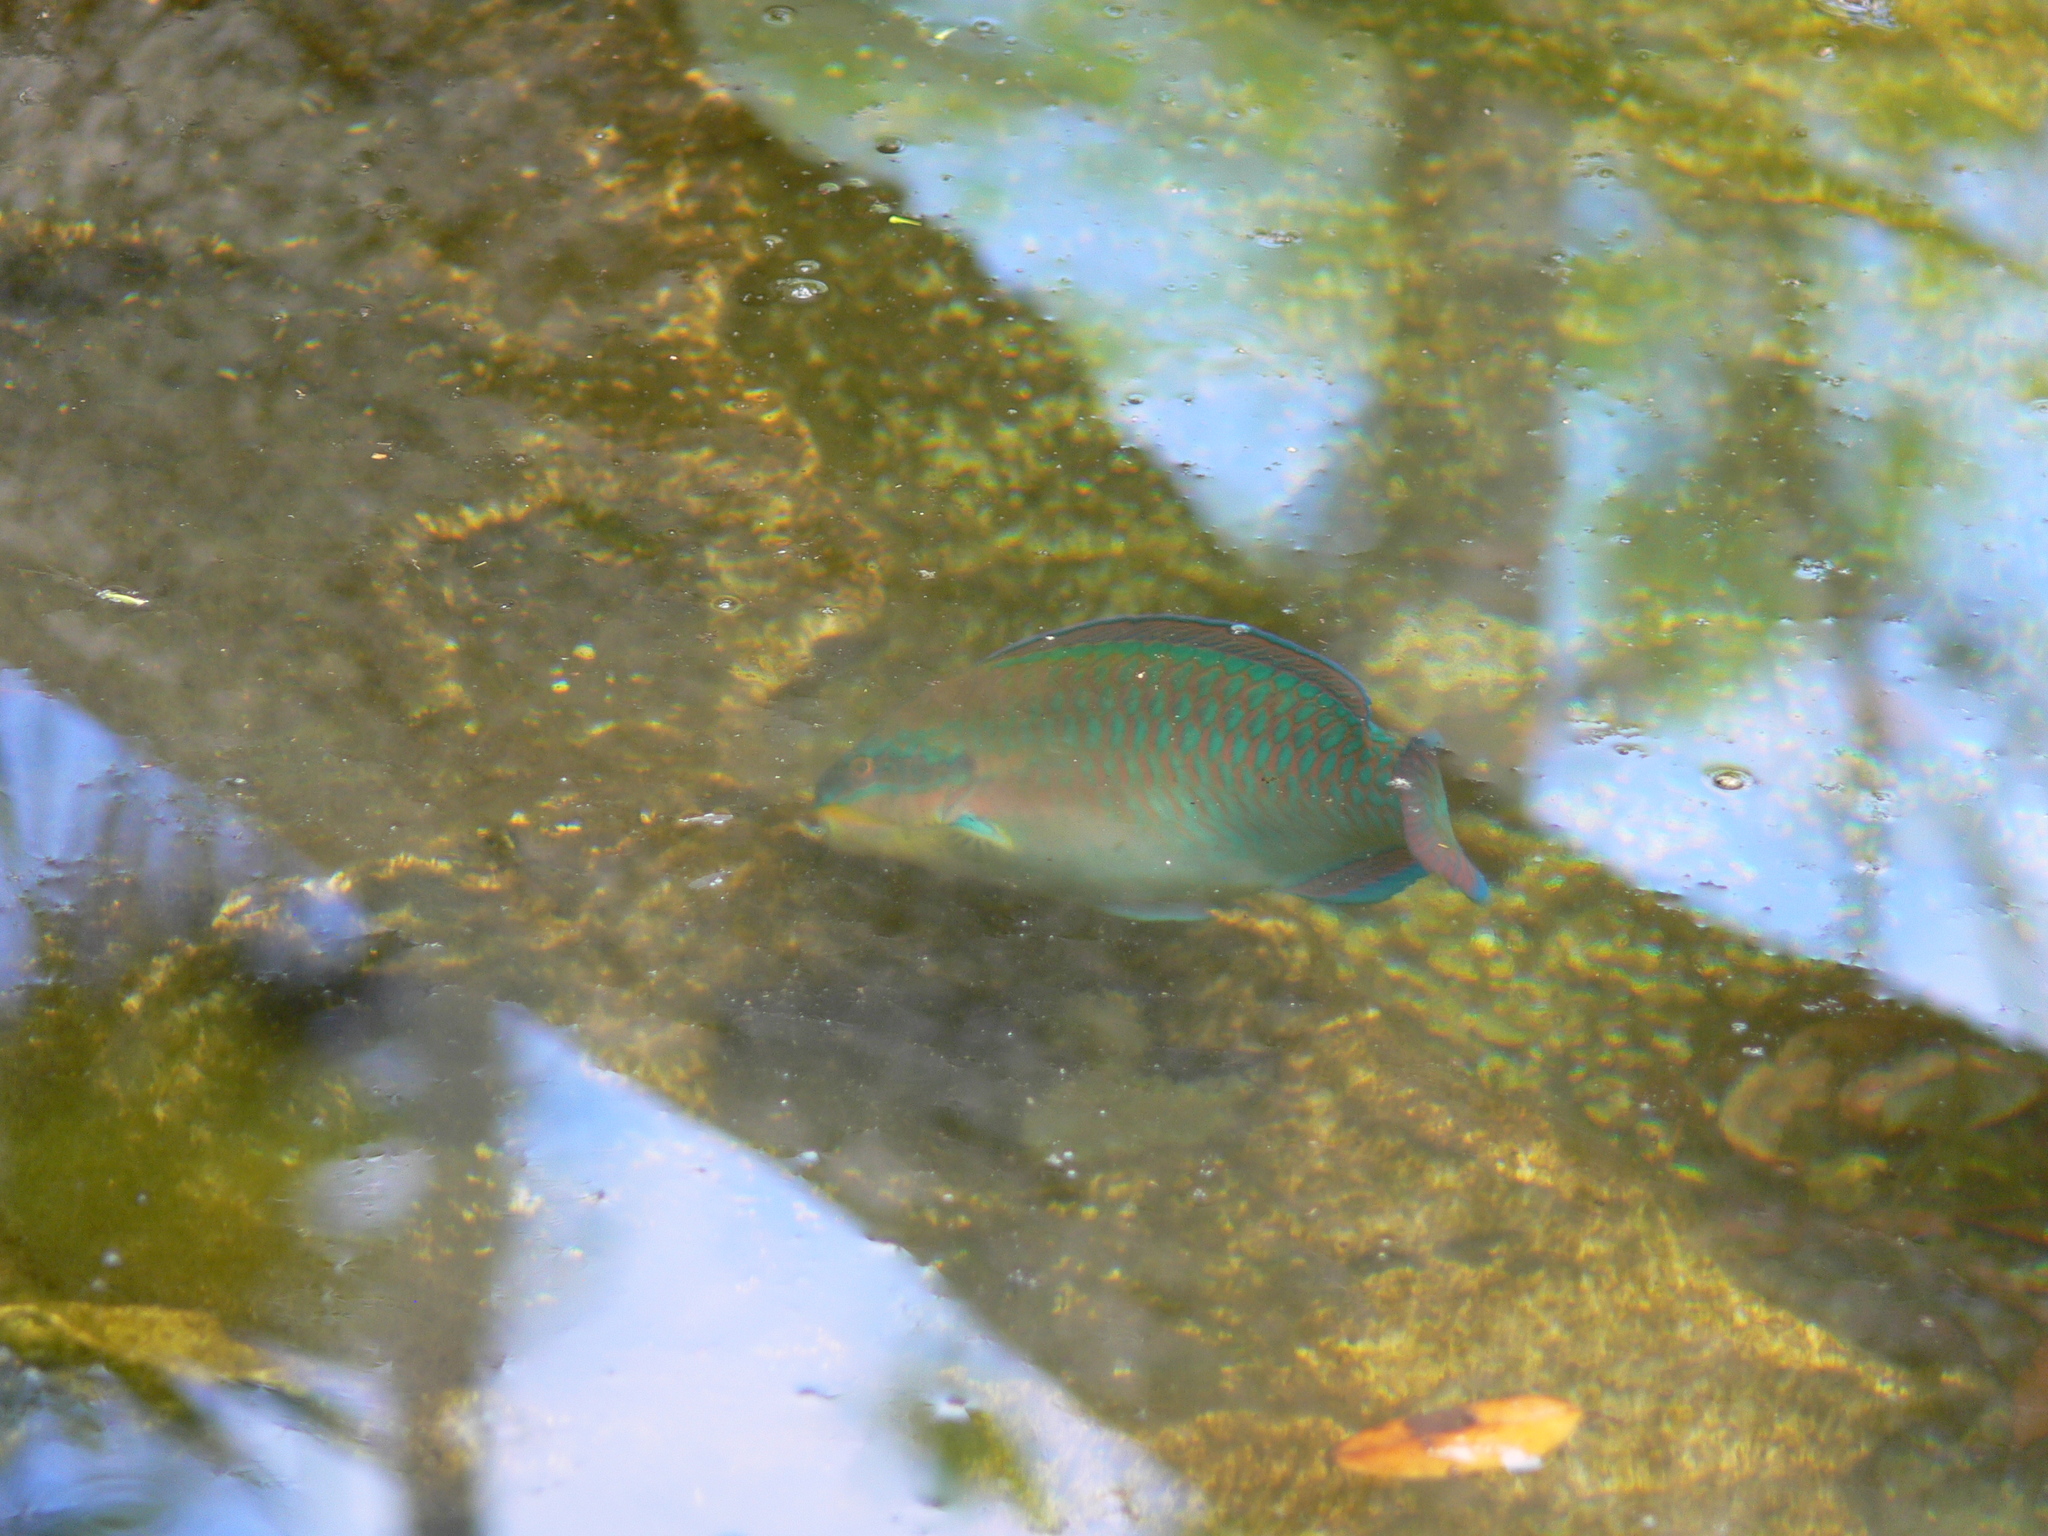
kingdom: Animalia
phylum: Chordata
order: Perciformes
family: Scaridae
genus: Scarus
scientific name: Scarus iseri
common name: Striped parrotfish
